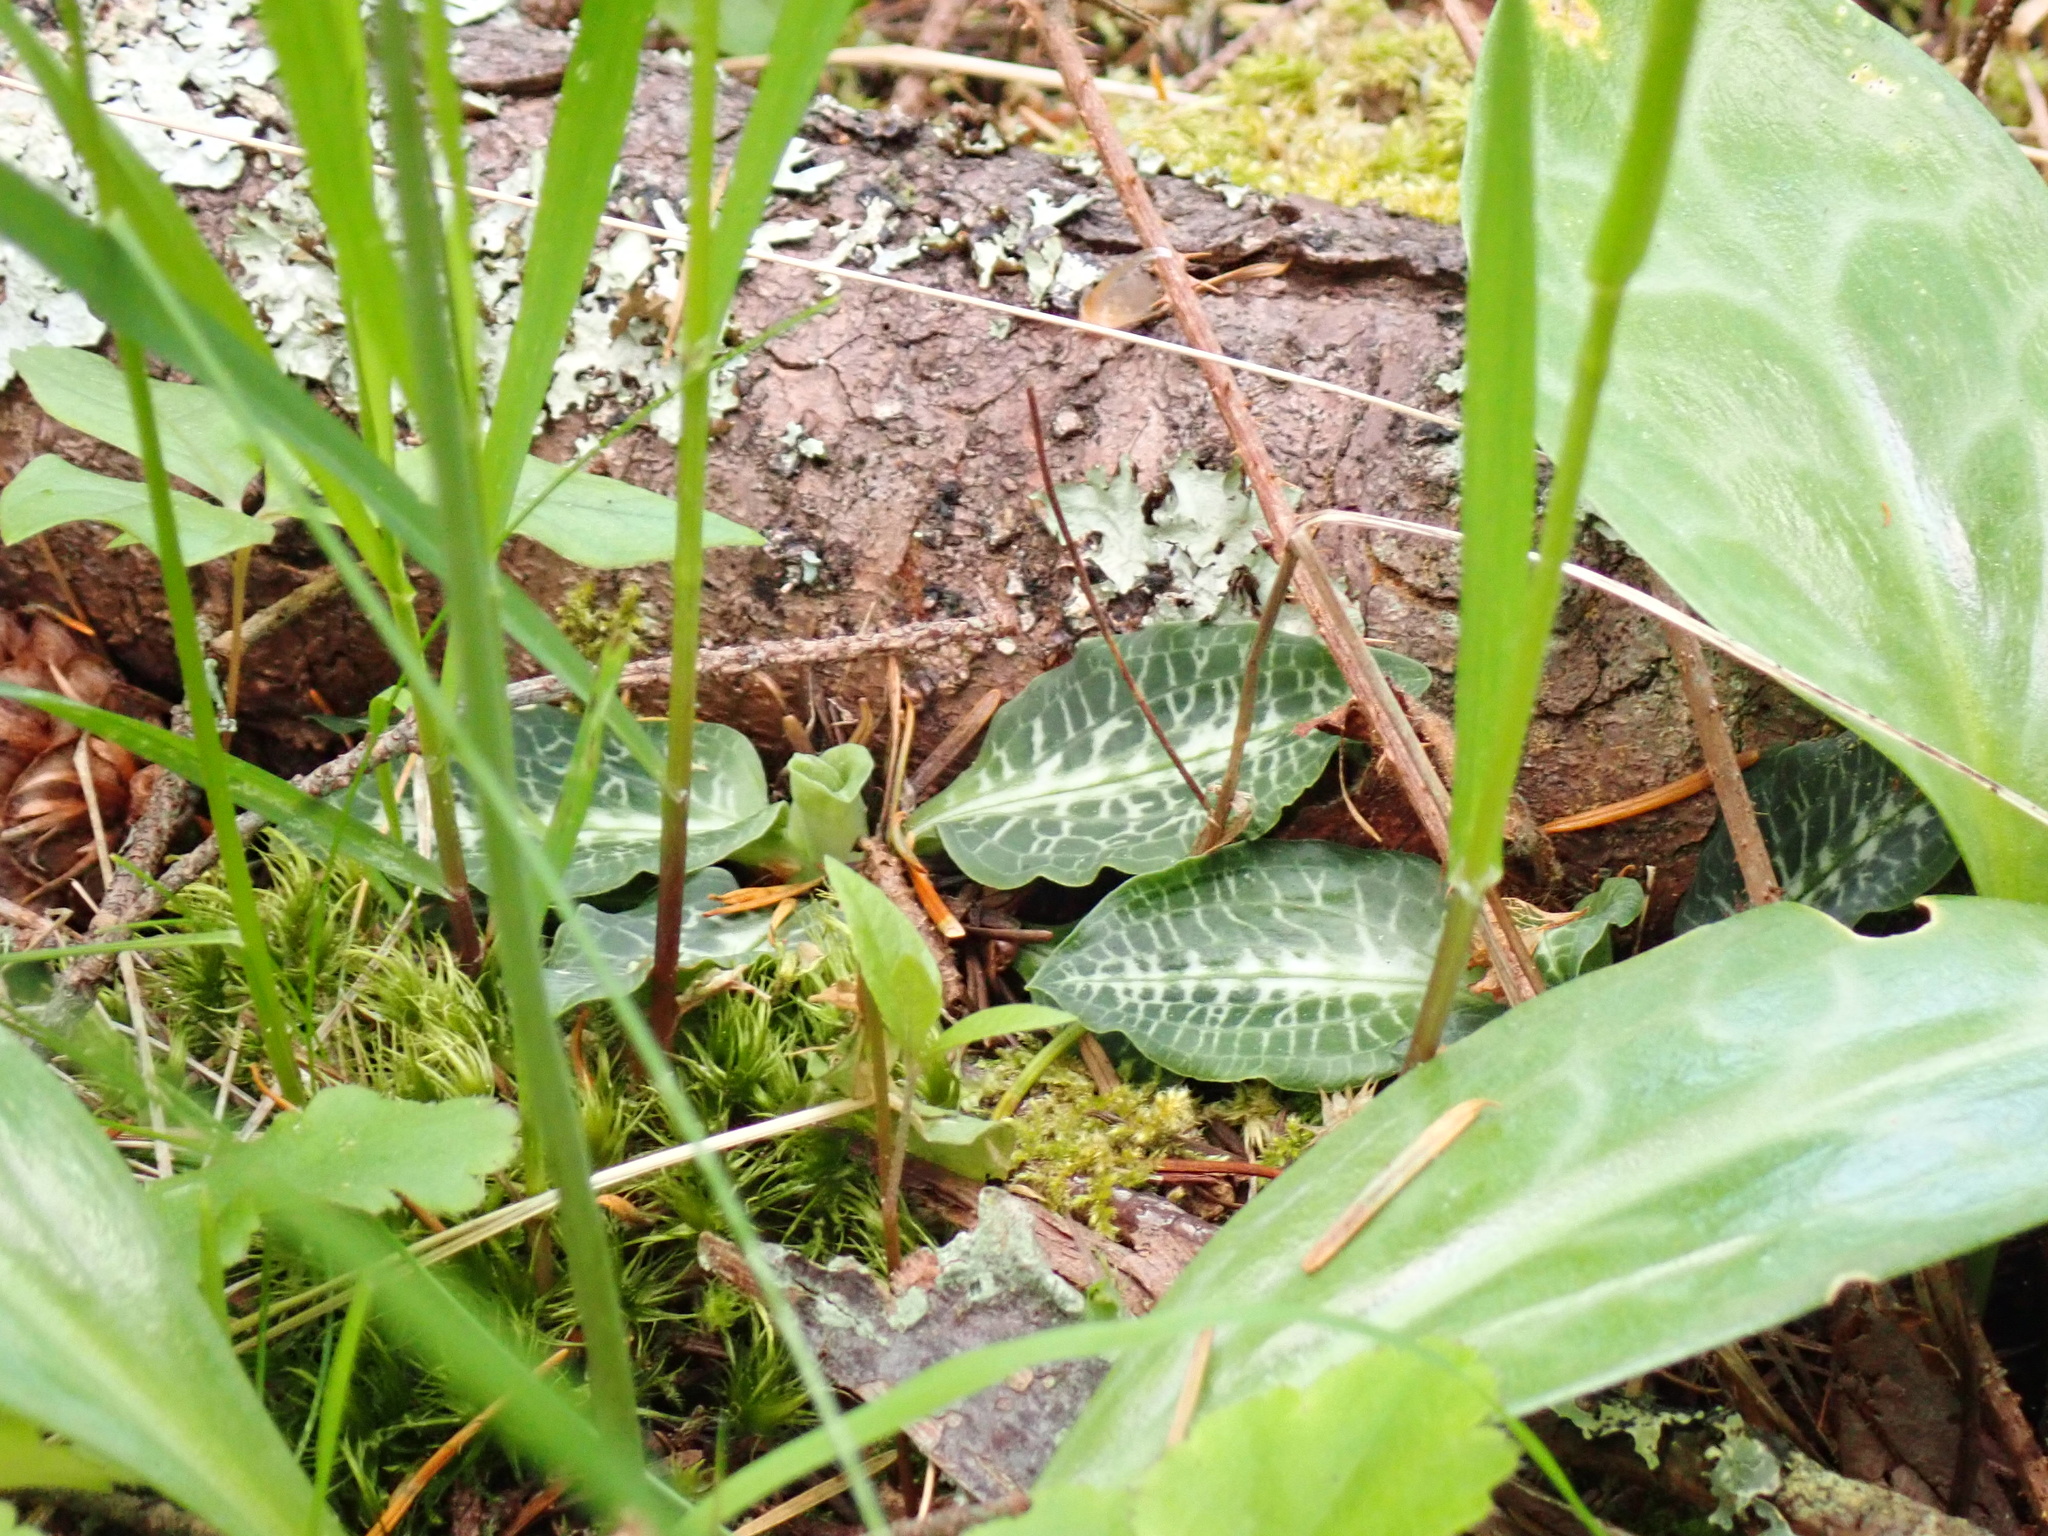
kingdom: Plantae
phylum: Tracheophyta
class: Liliopsida
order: Asparagales
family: Orchidaceae
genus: Goodyera
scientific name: Goodyera oblongifolia
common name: Giant rattlesnake-plantain
